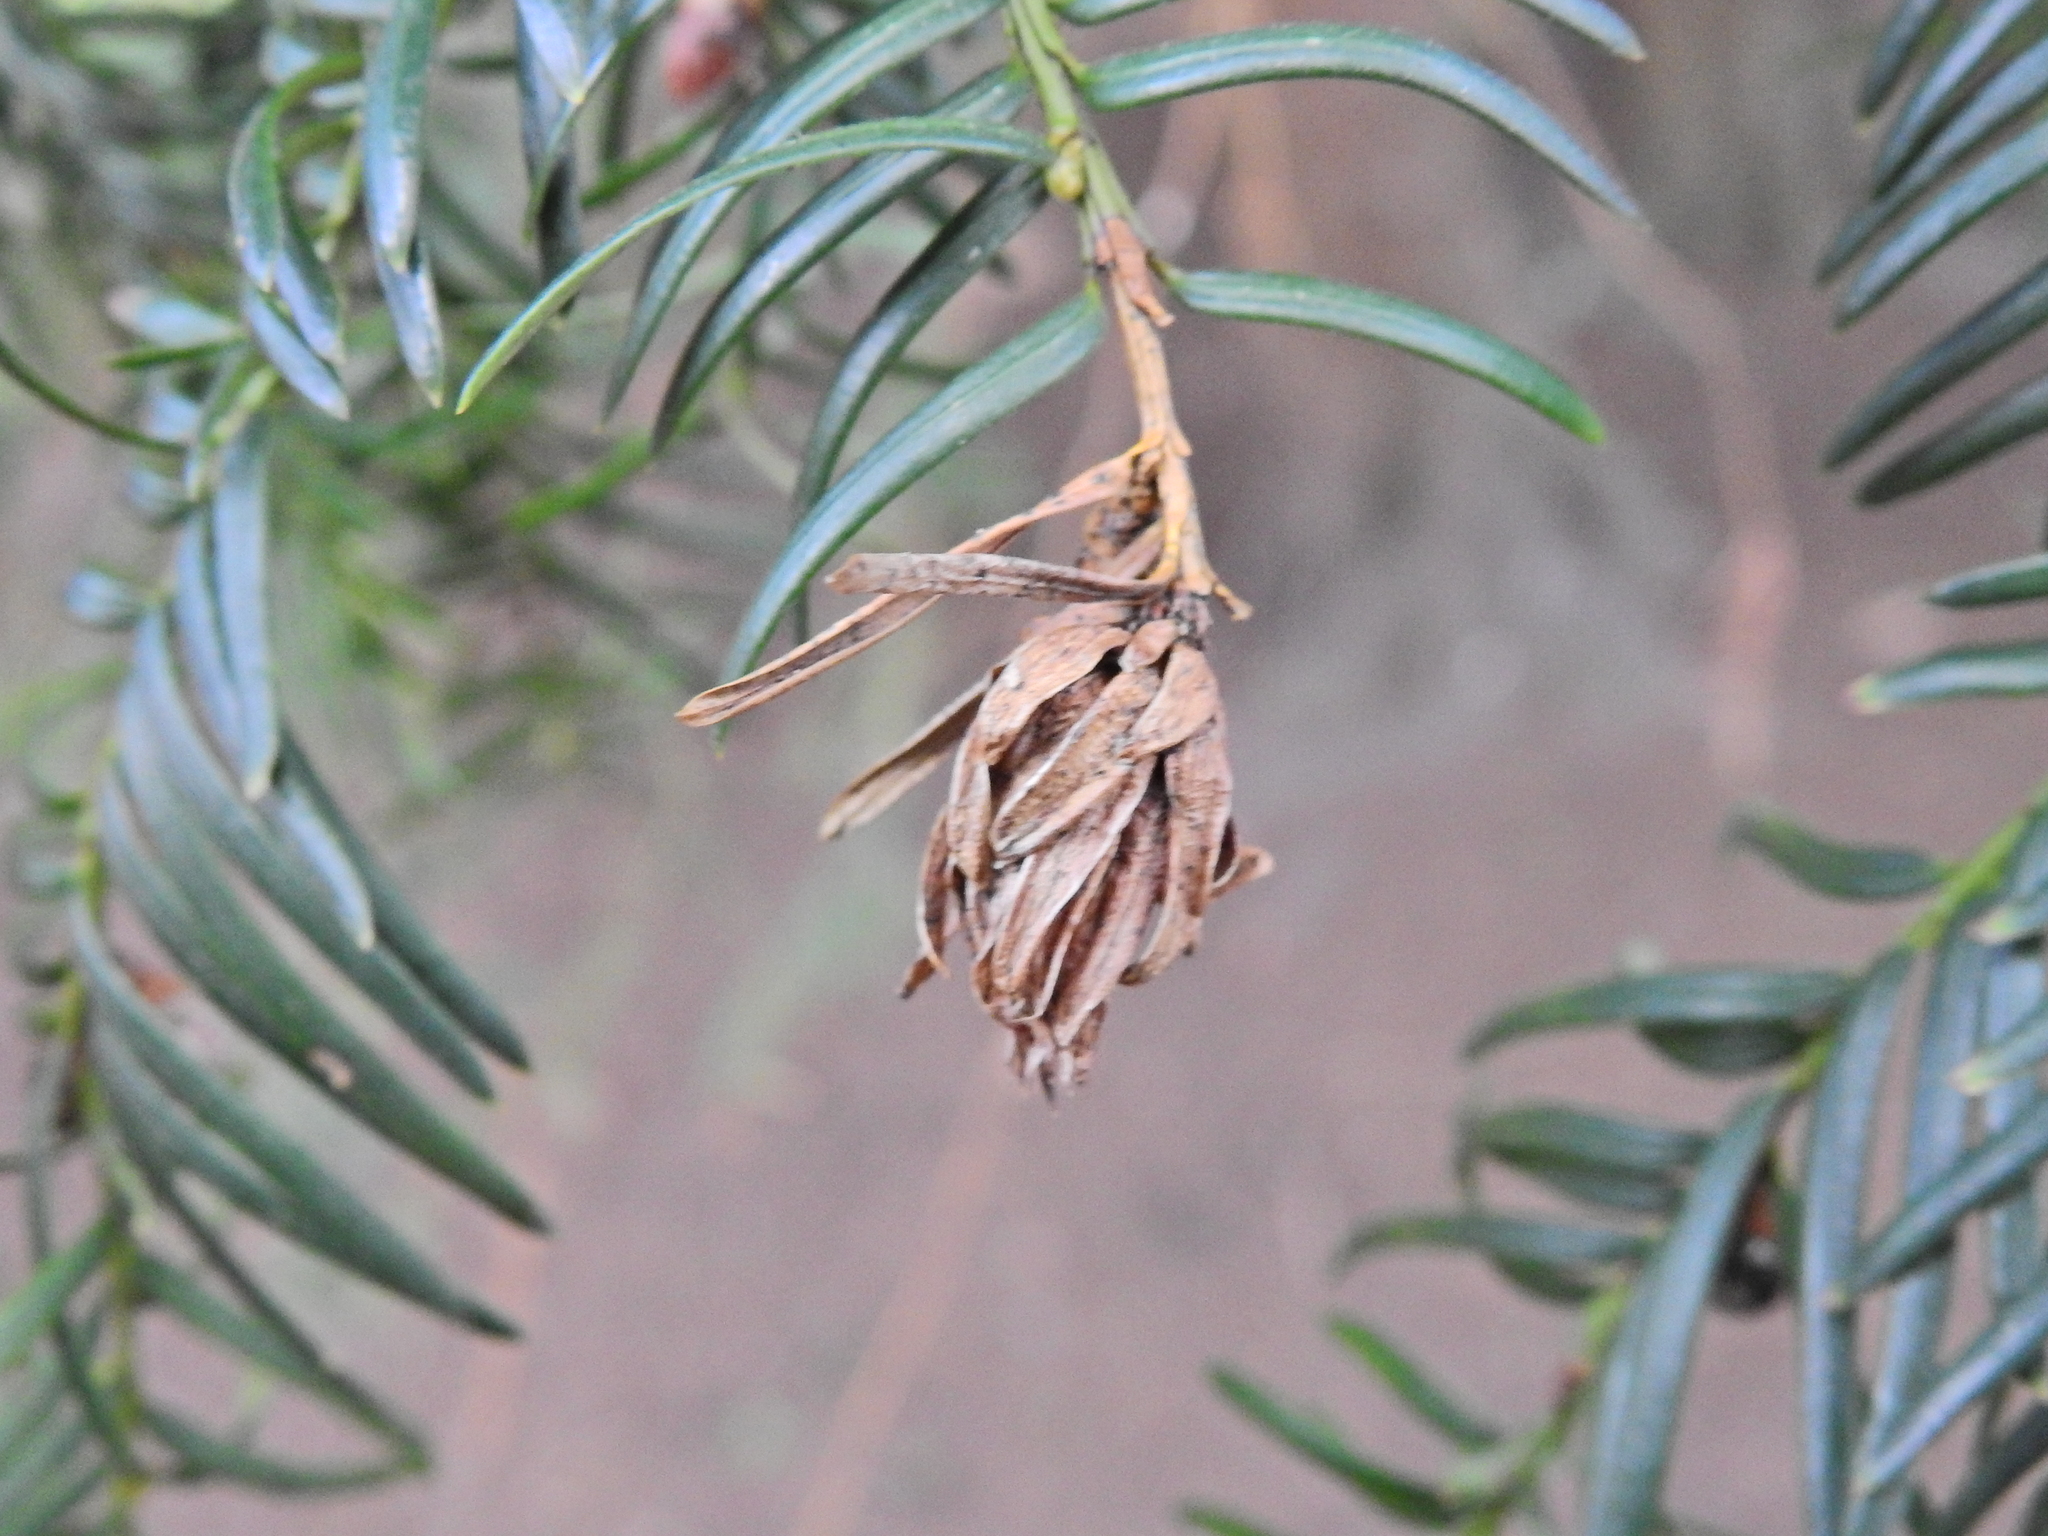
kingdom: Animalia
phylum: Arthropoda
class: Insecta
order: Diptera
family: Cecidomyiidae
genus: Taxomyia
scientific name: Taxomyia taxi
